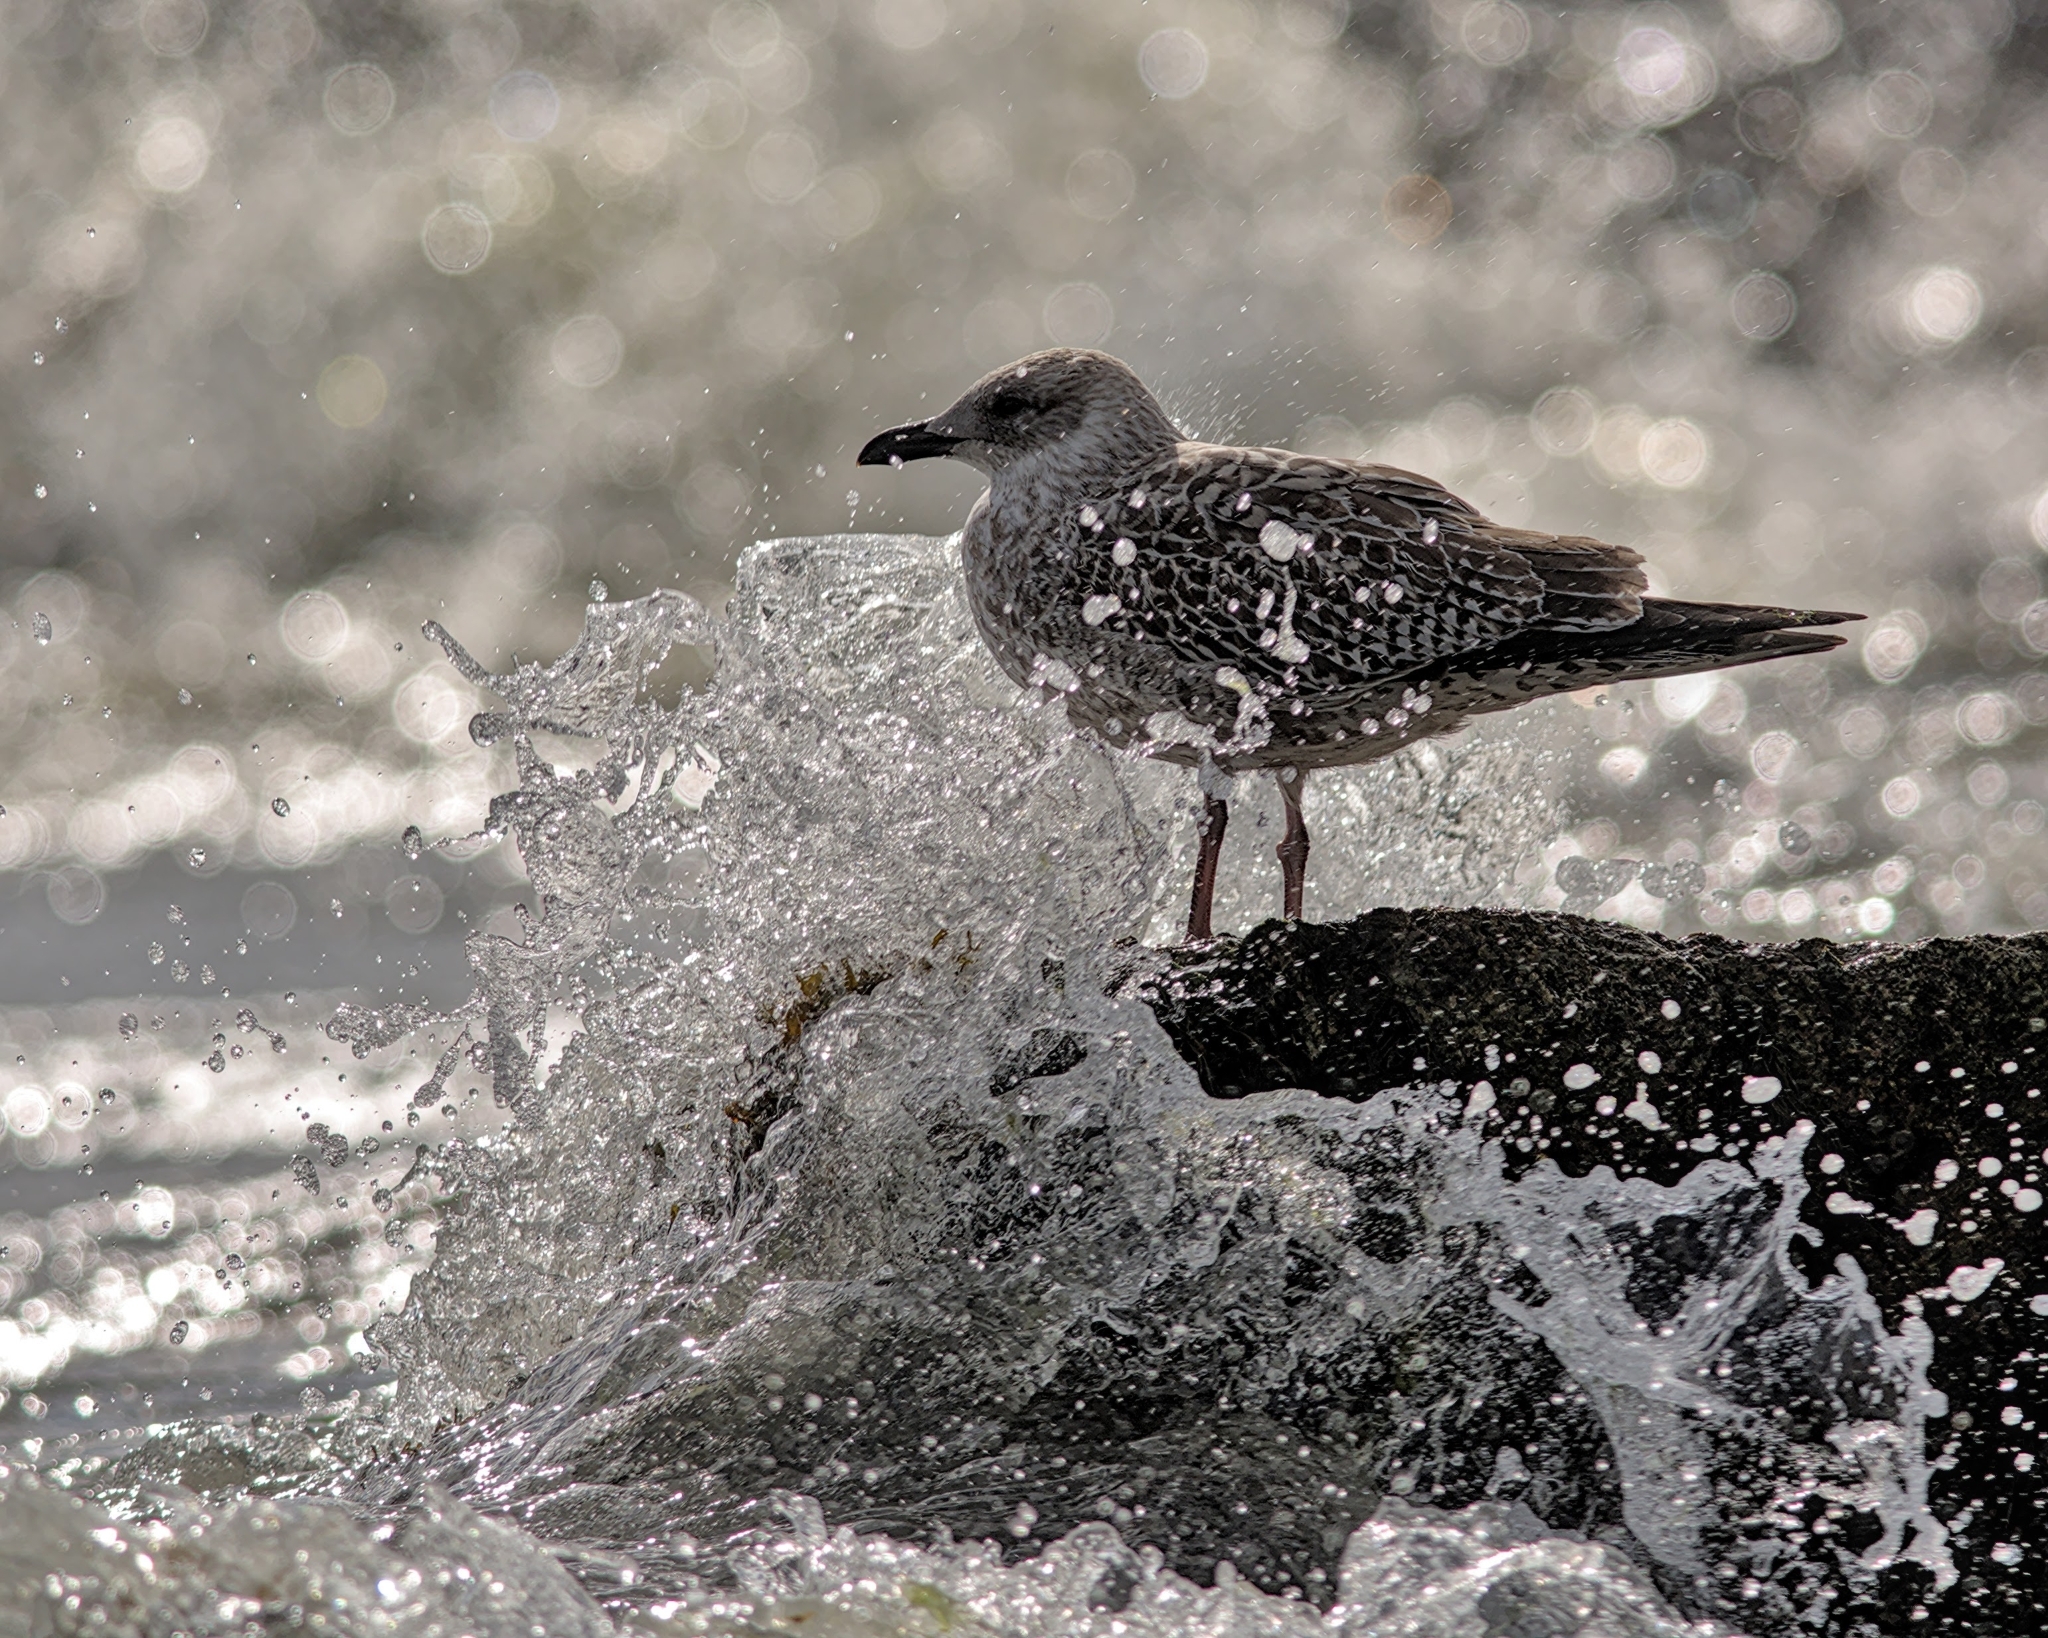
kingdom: Animalia
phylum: Chordata
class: Aves
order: Charadriiformes
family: Laridae
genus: Larus
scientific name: Larus argentatus
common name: Herring gull
